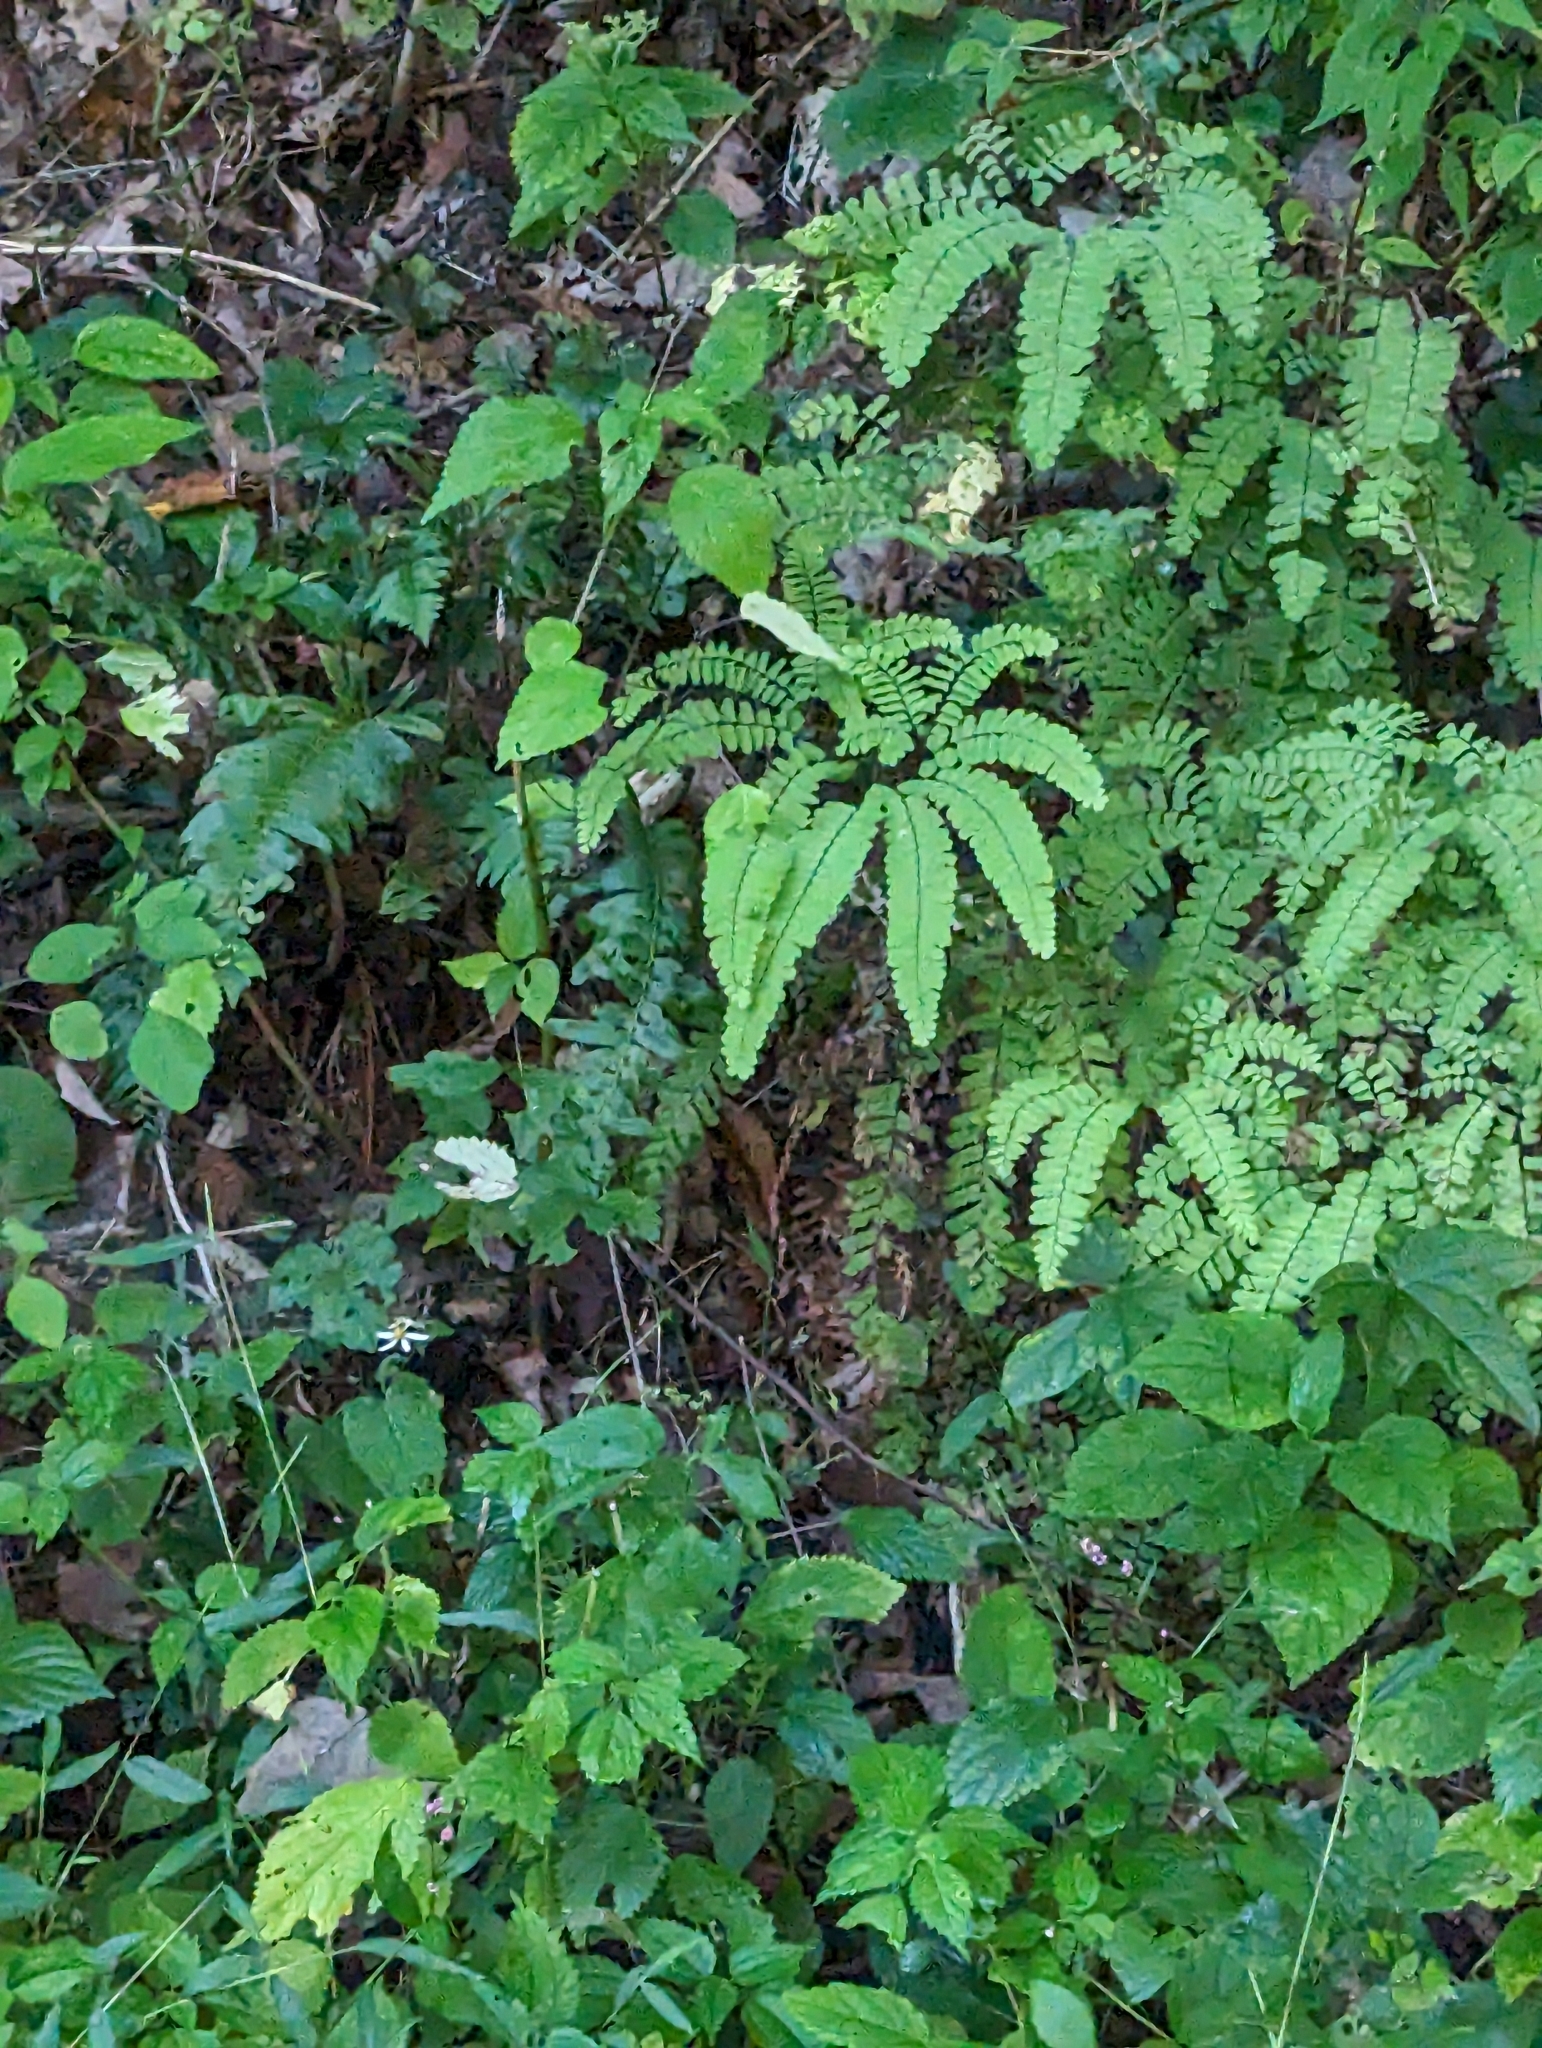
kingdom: Plantae
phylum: Tracheophyta
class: Polypodiopsida
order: Polypodiales
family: Pteridaceae
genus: Adiantum
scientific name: Adiantum pedatum
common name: Five-finger fern
